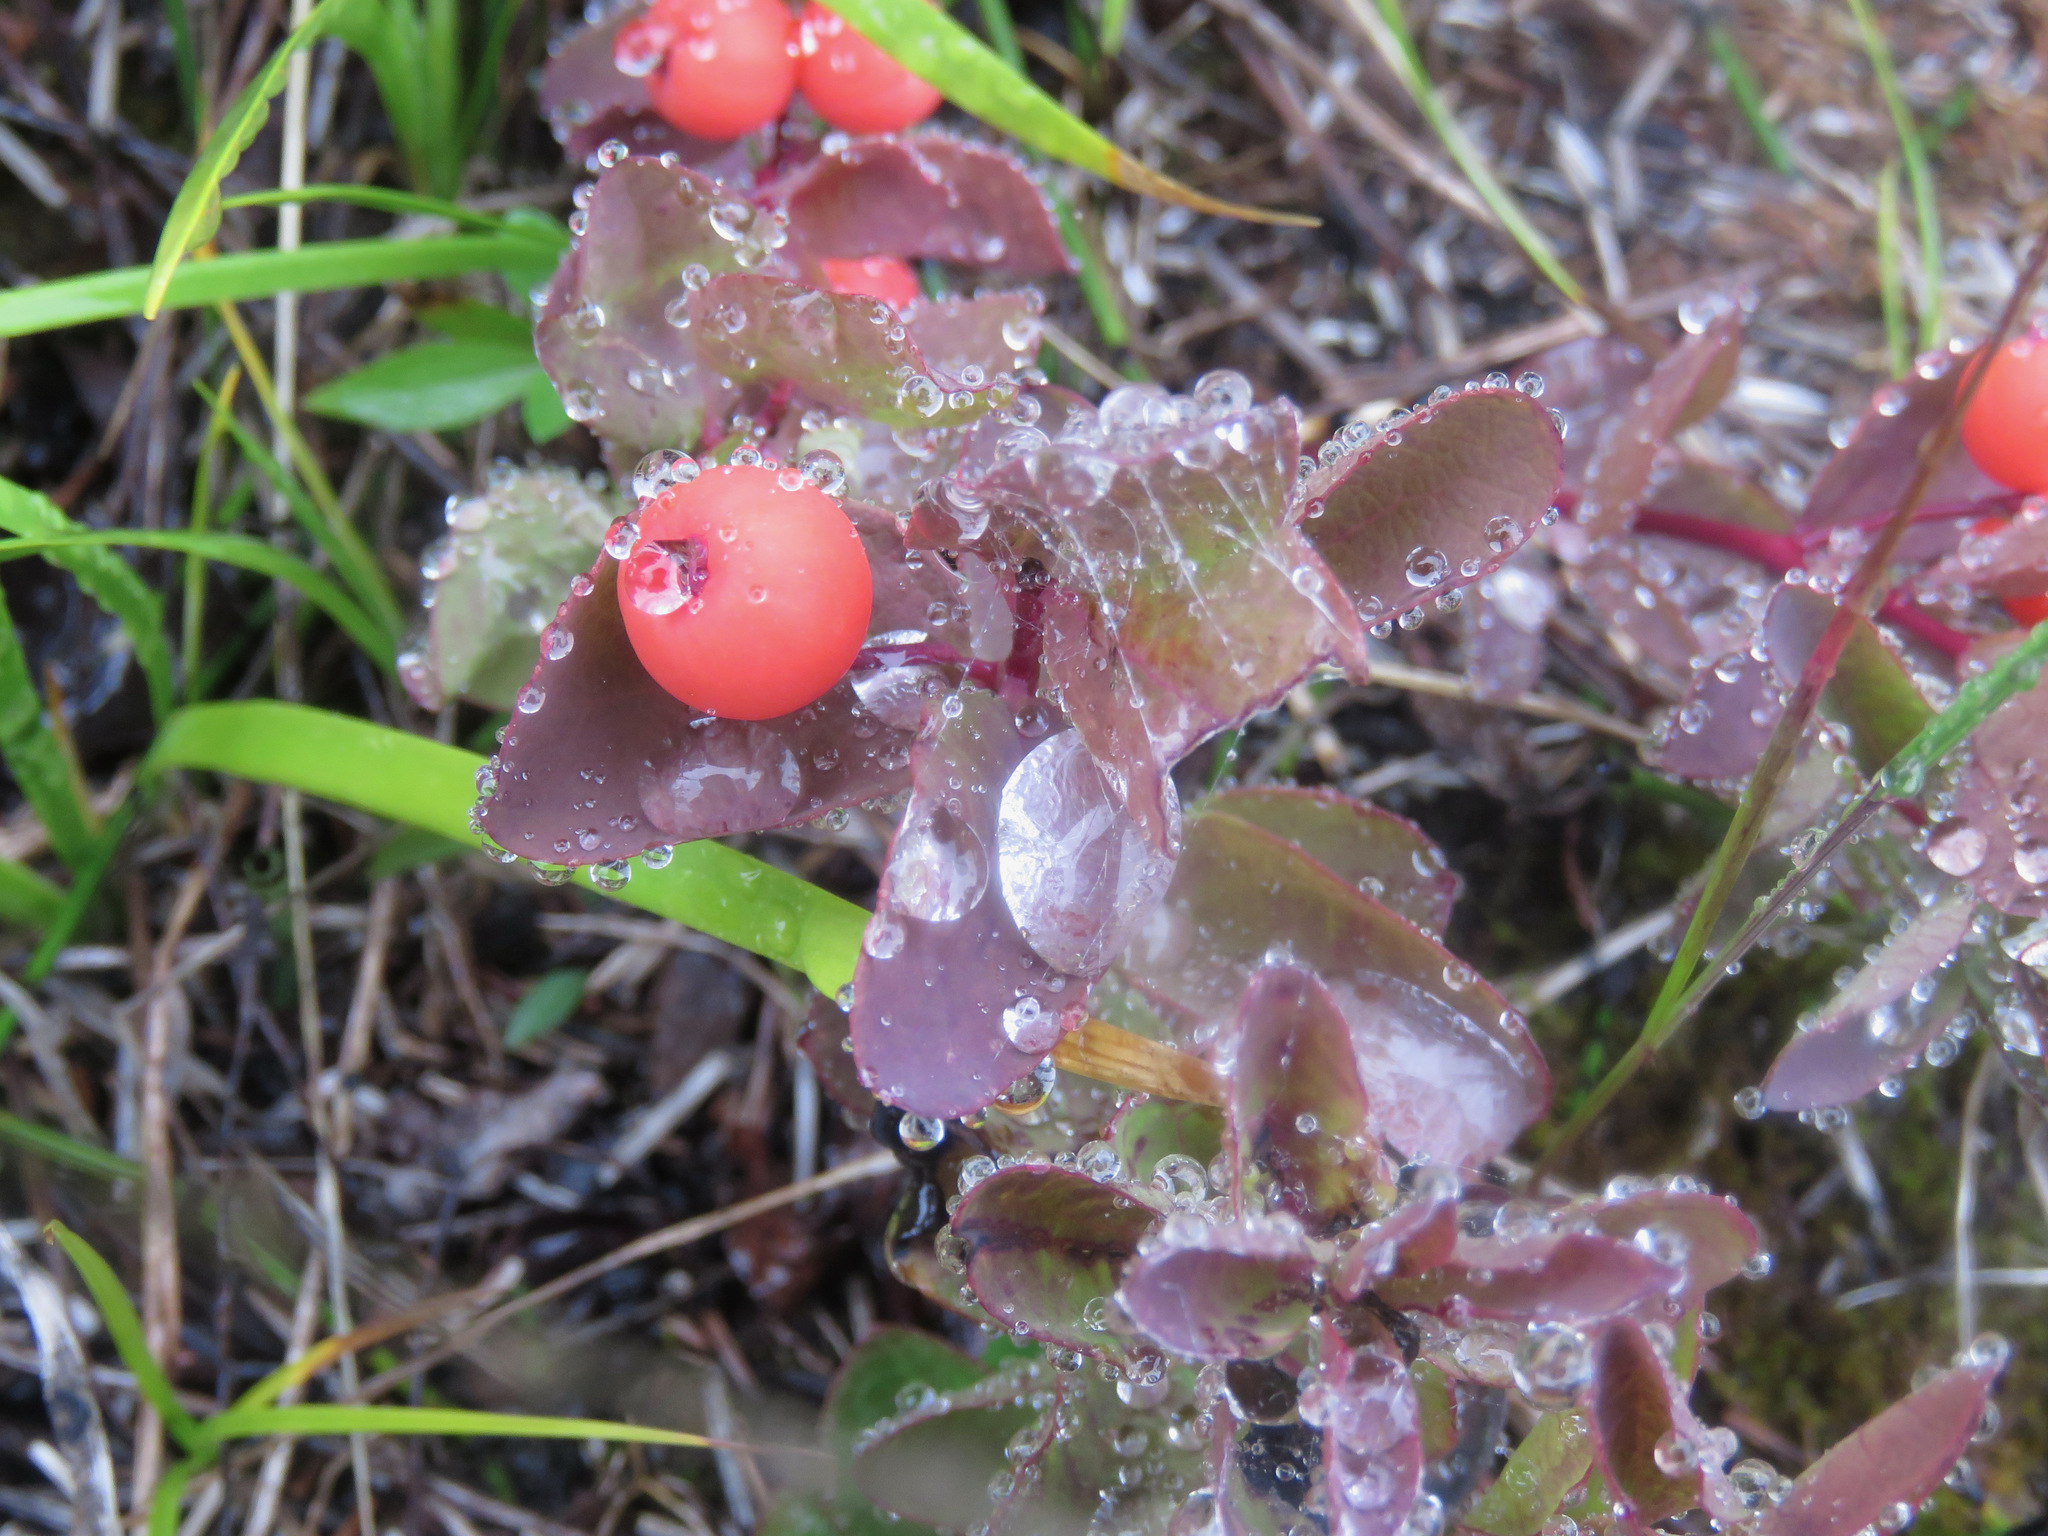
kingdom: Plantae
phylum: Tracheophyta
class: Magnoliopsida
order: Santalales
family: Comandraceae
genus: Geocaulon
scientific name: Geocaulon lividum
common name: Earthberry
